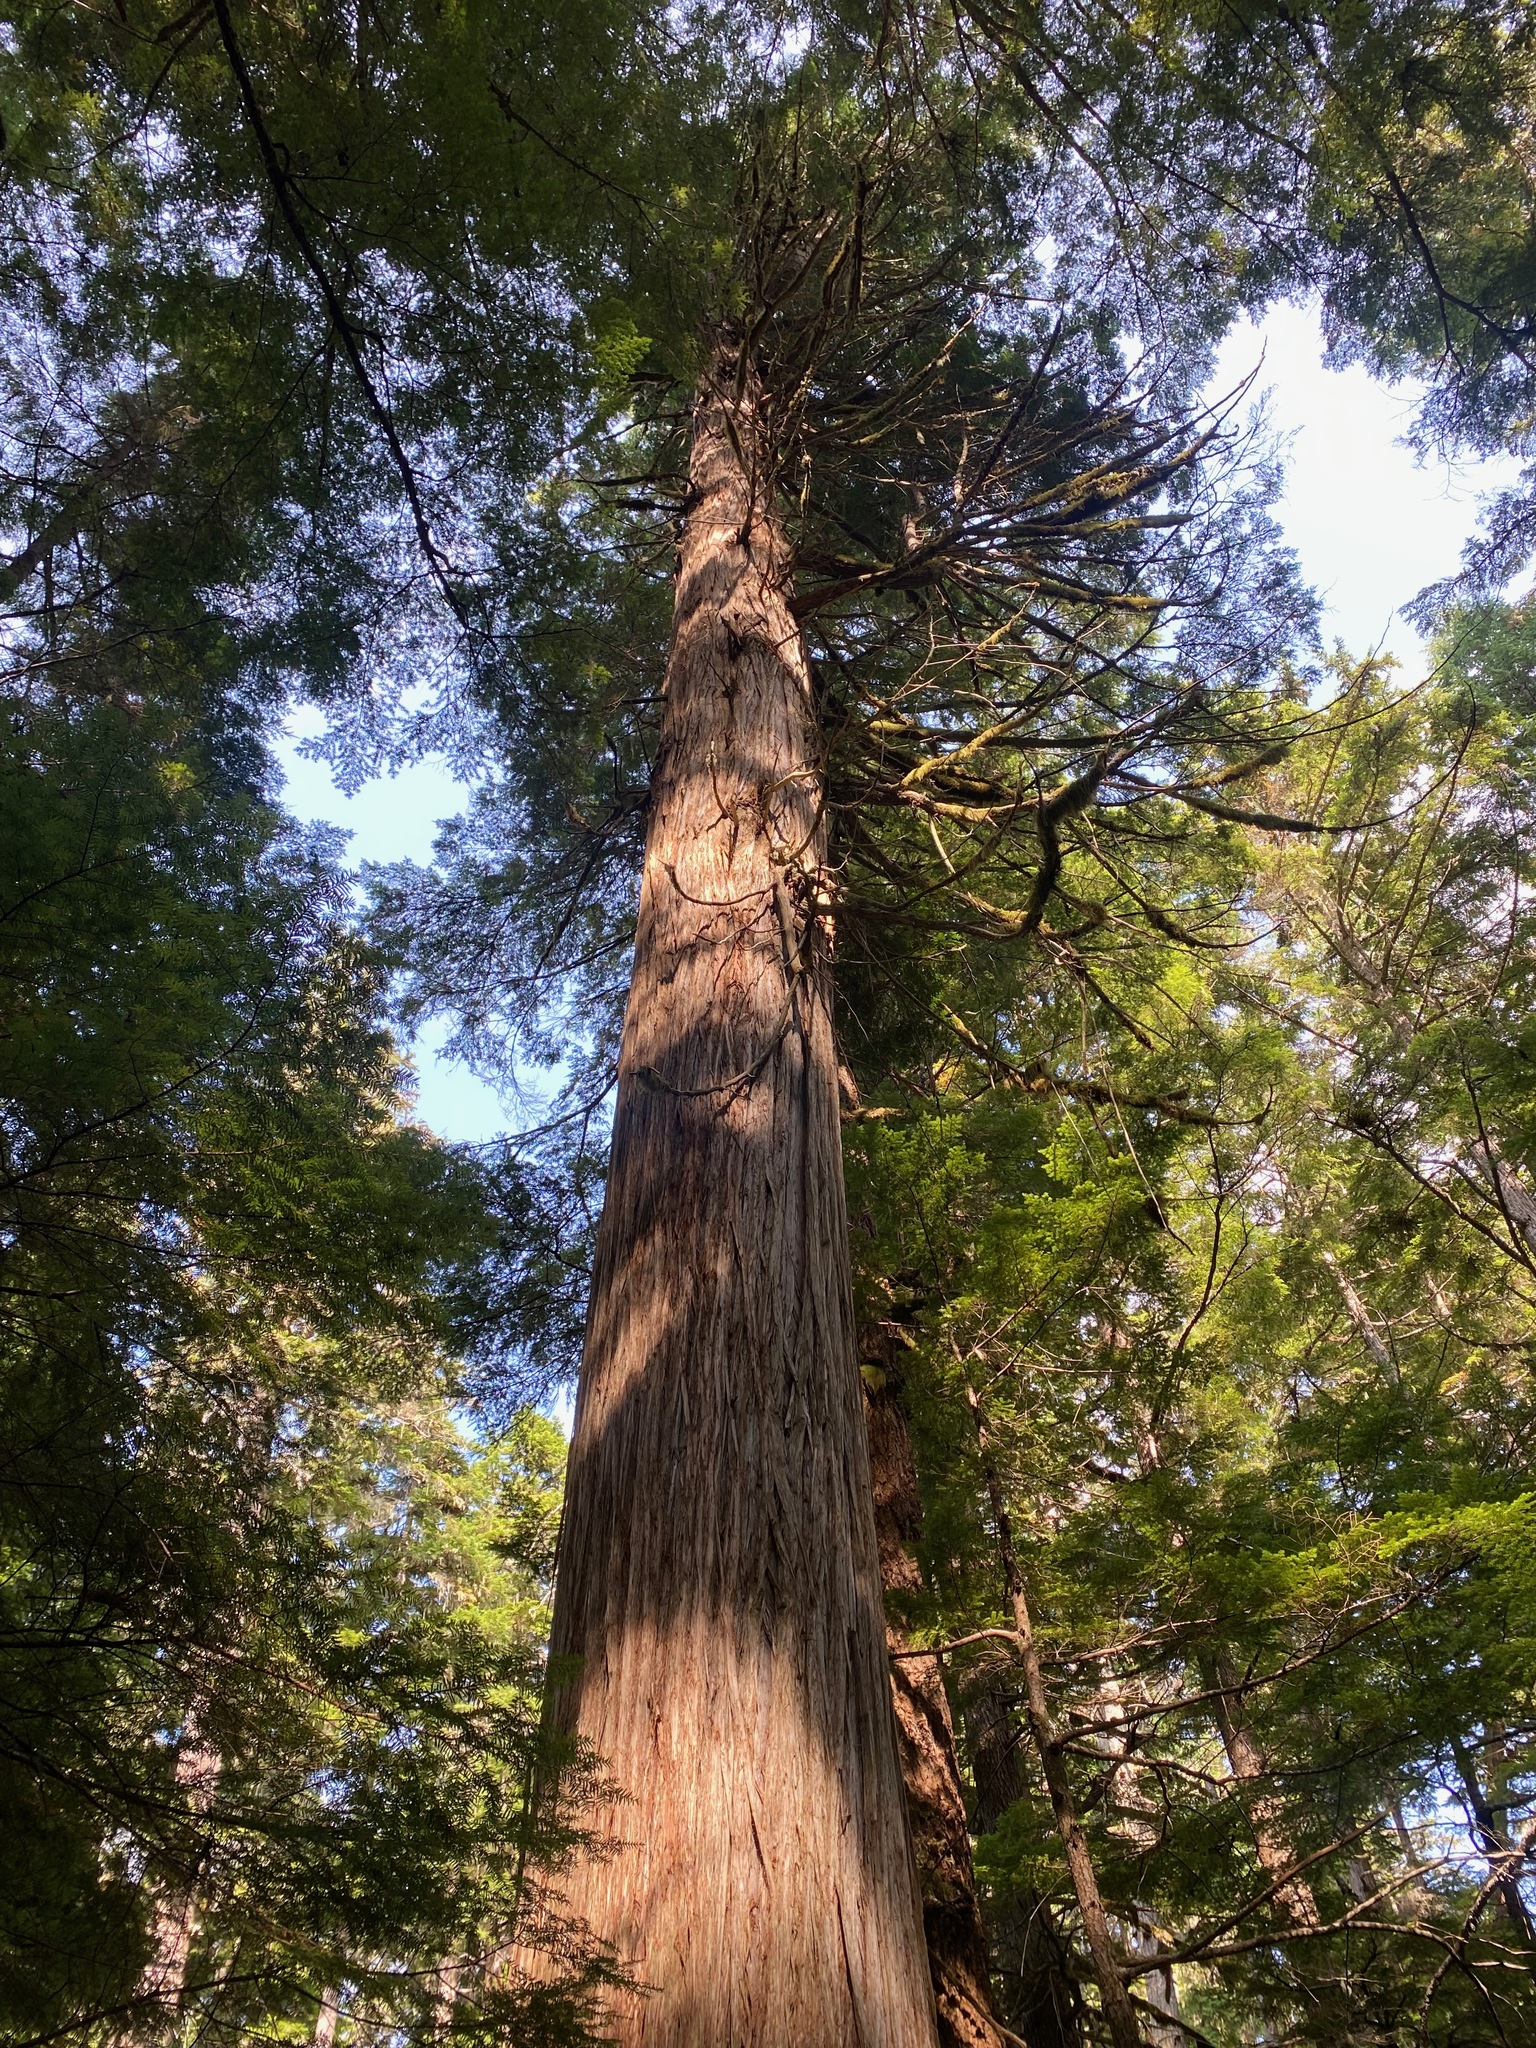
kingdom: Plantae
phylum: Tracheophyta
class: Pinopsida
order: Pinales
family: Cupressaceae
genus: Thuja
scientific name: Thuja plicata
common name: Western red-cedar
